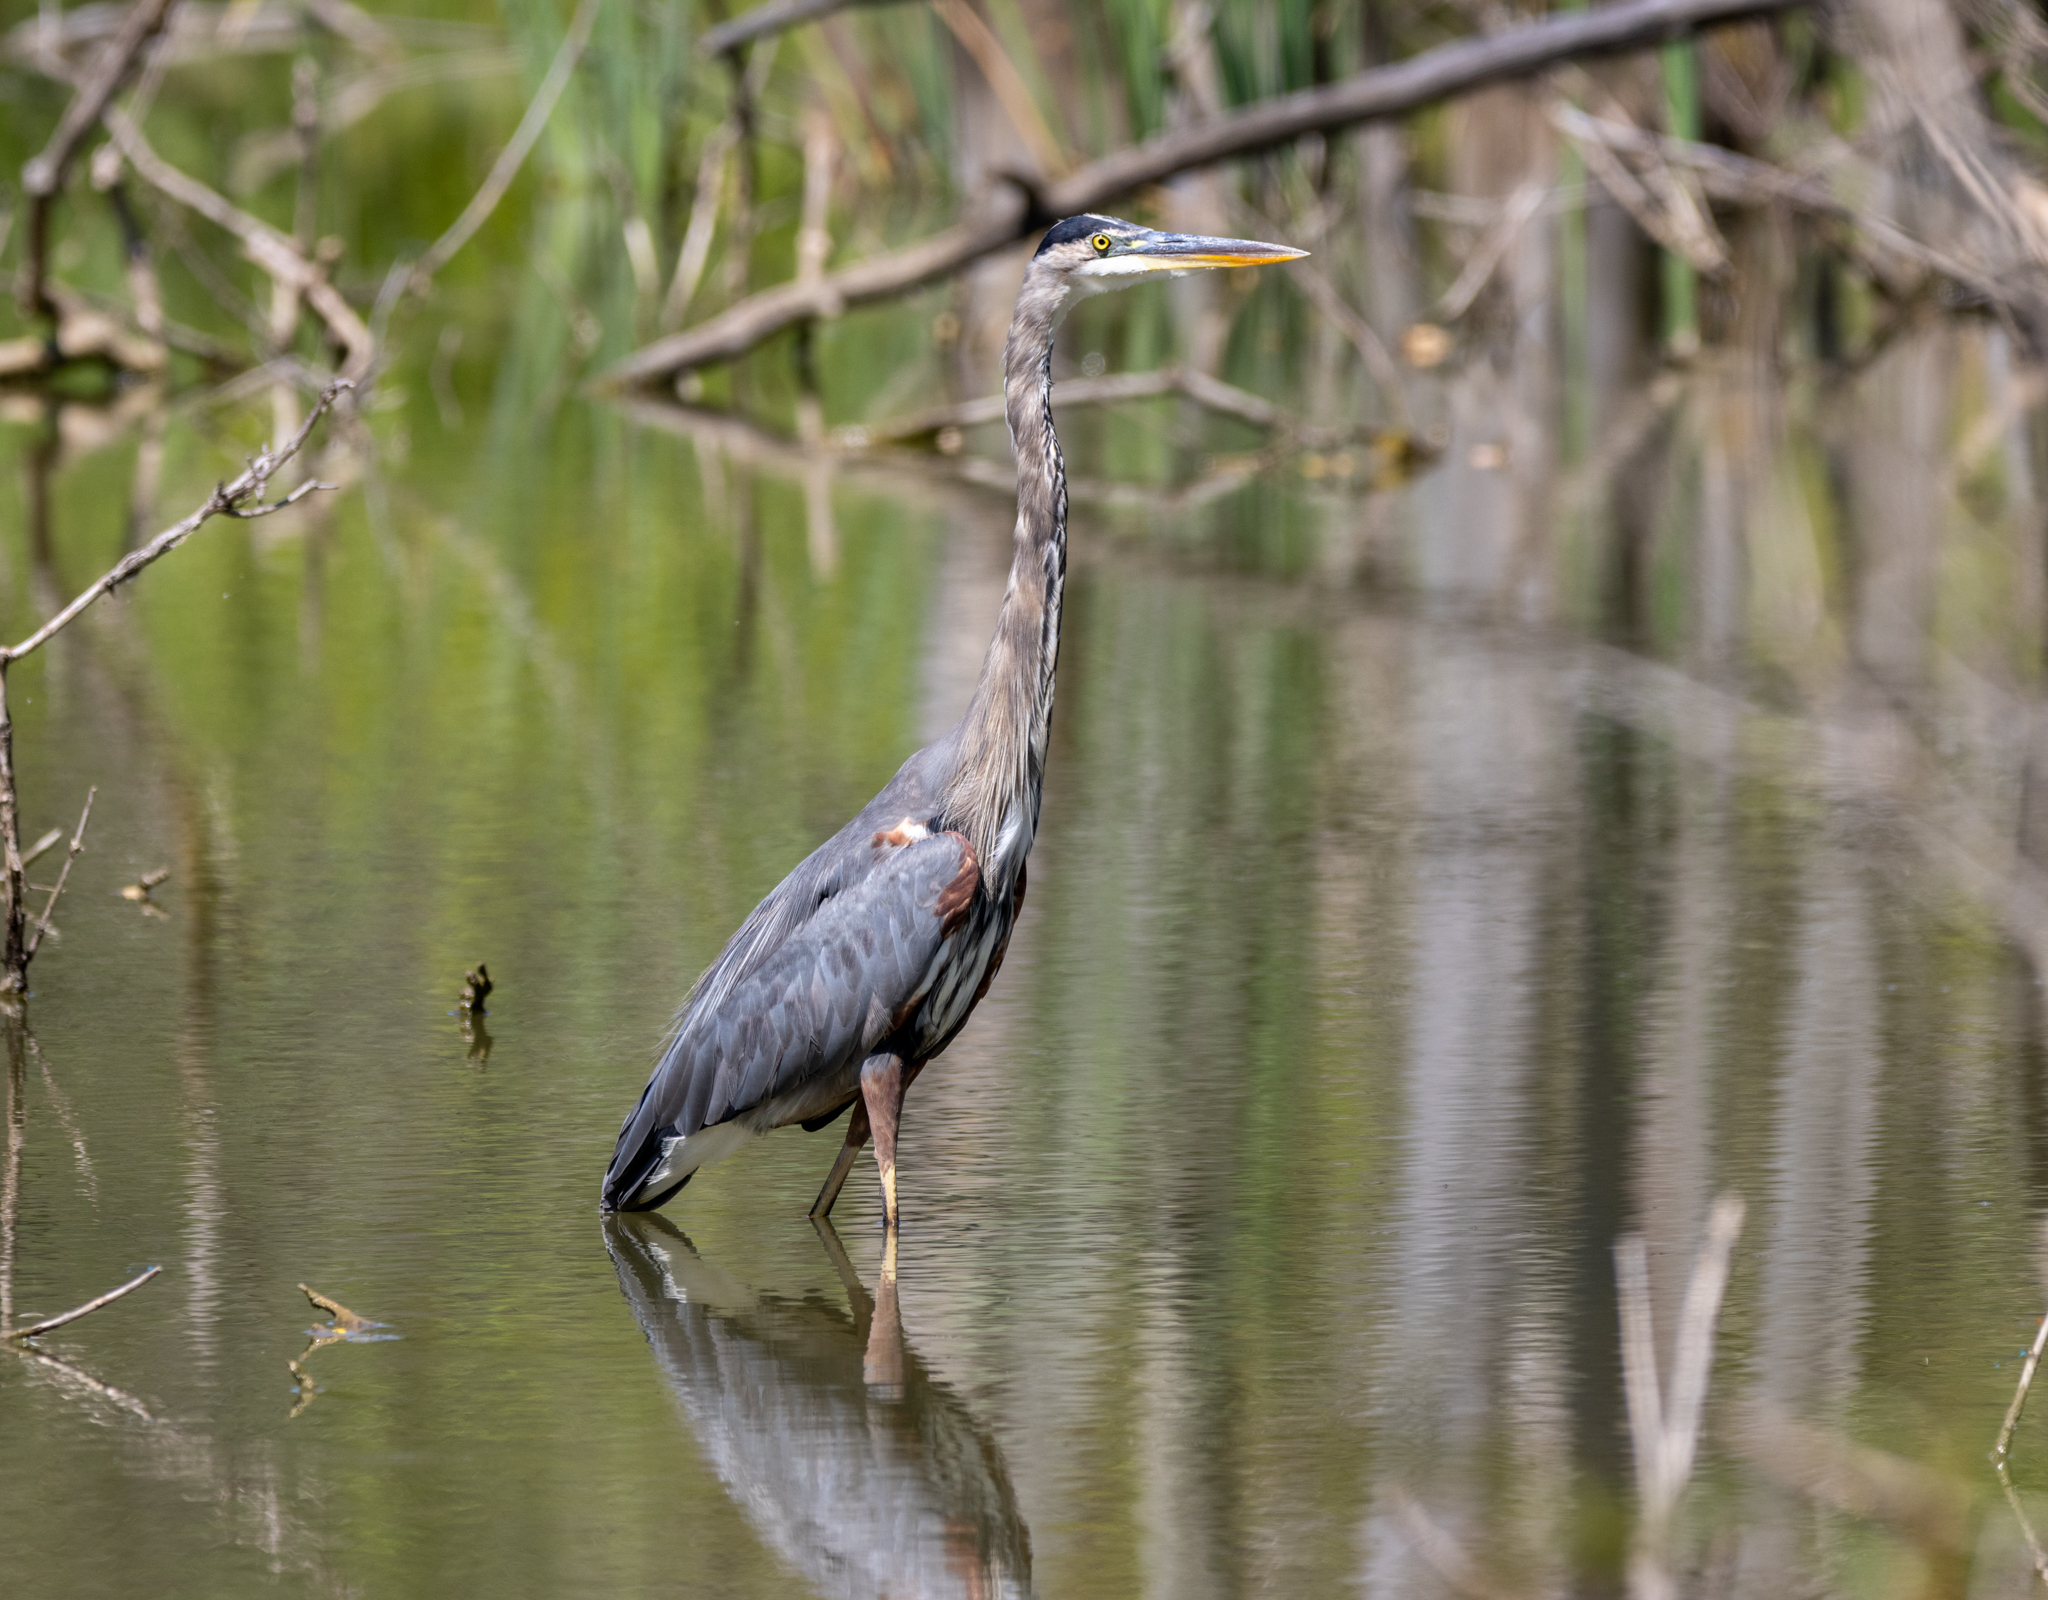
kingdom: Animalia
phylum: Chordata
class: Aves
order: Pelecaniformes
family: Ardeidae
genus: Ardea
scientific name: Ardea herodias
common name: Great blue heron
